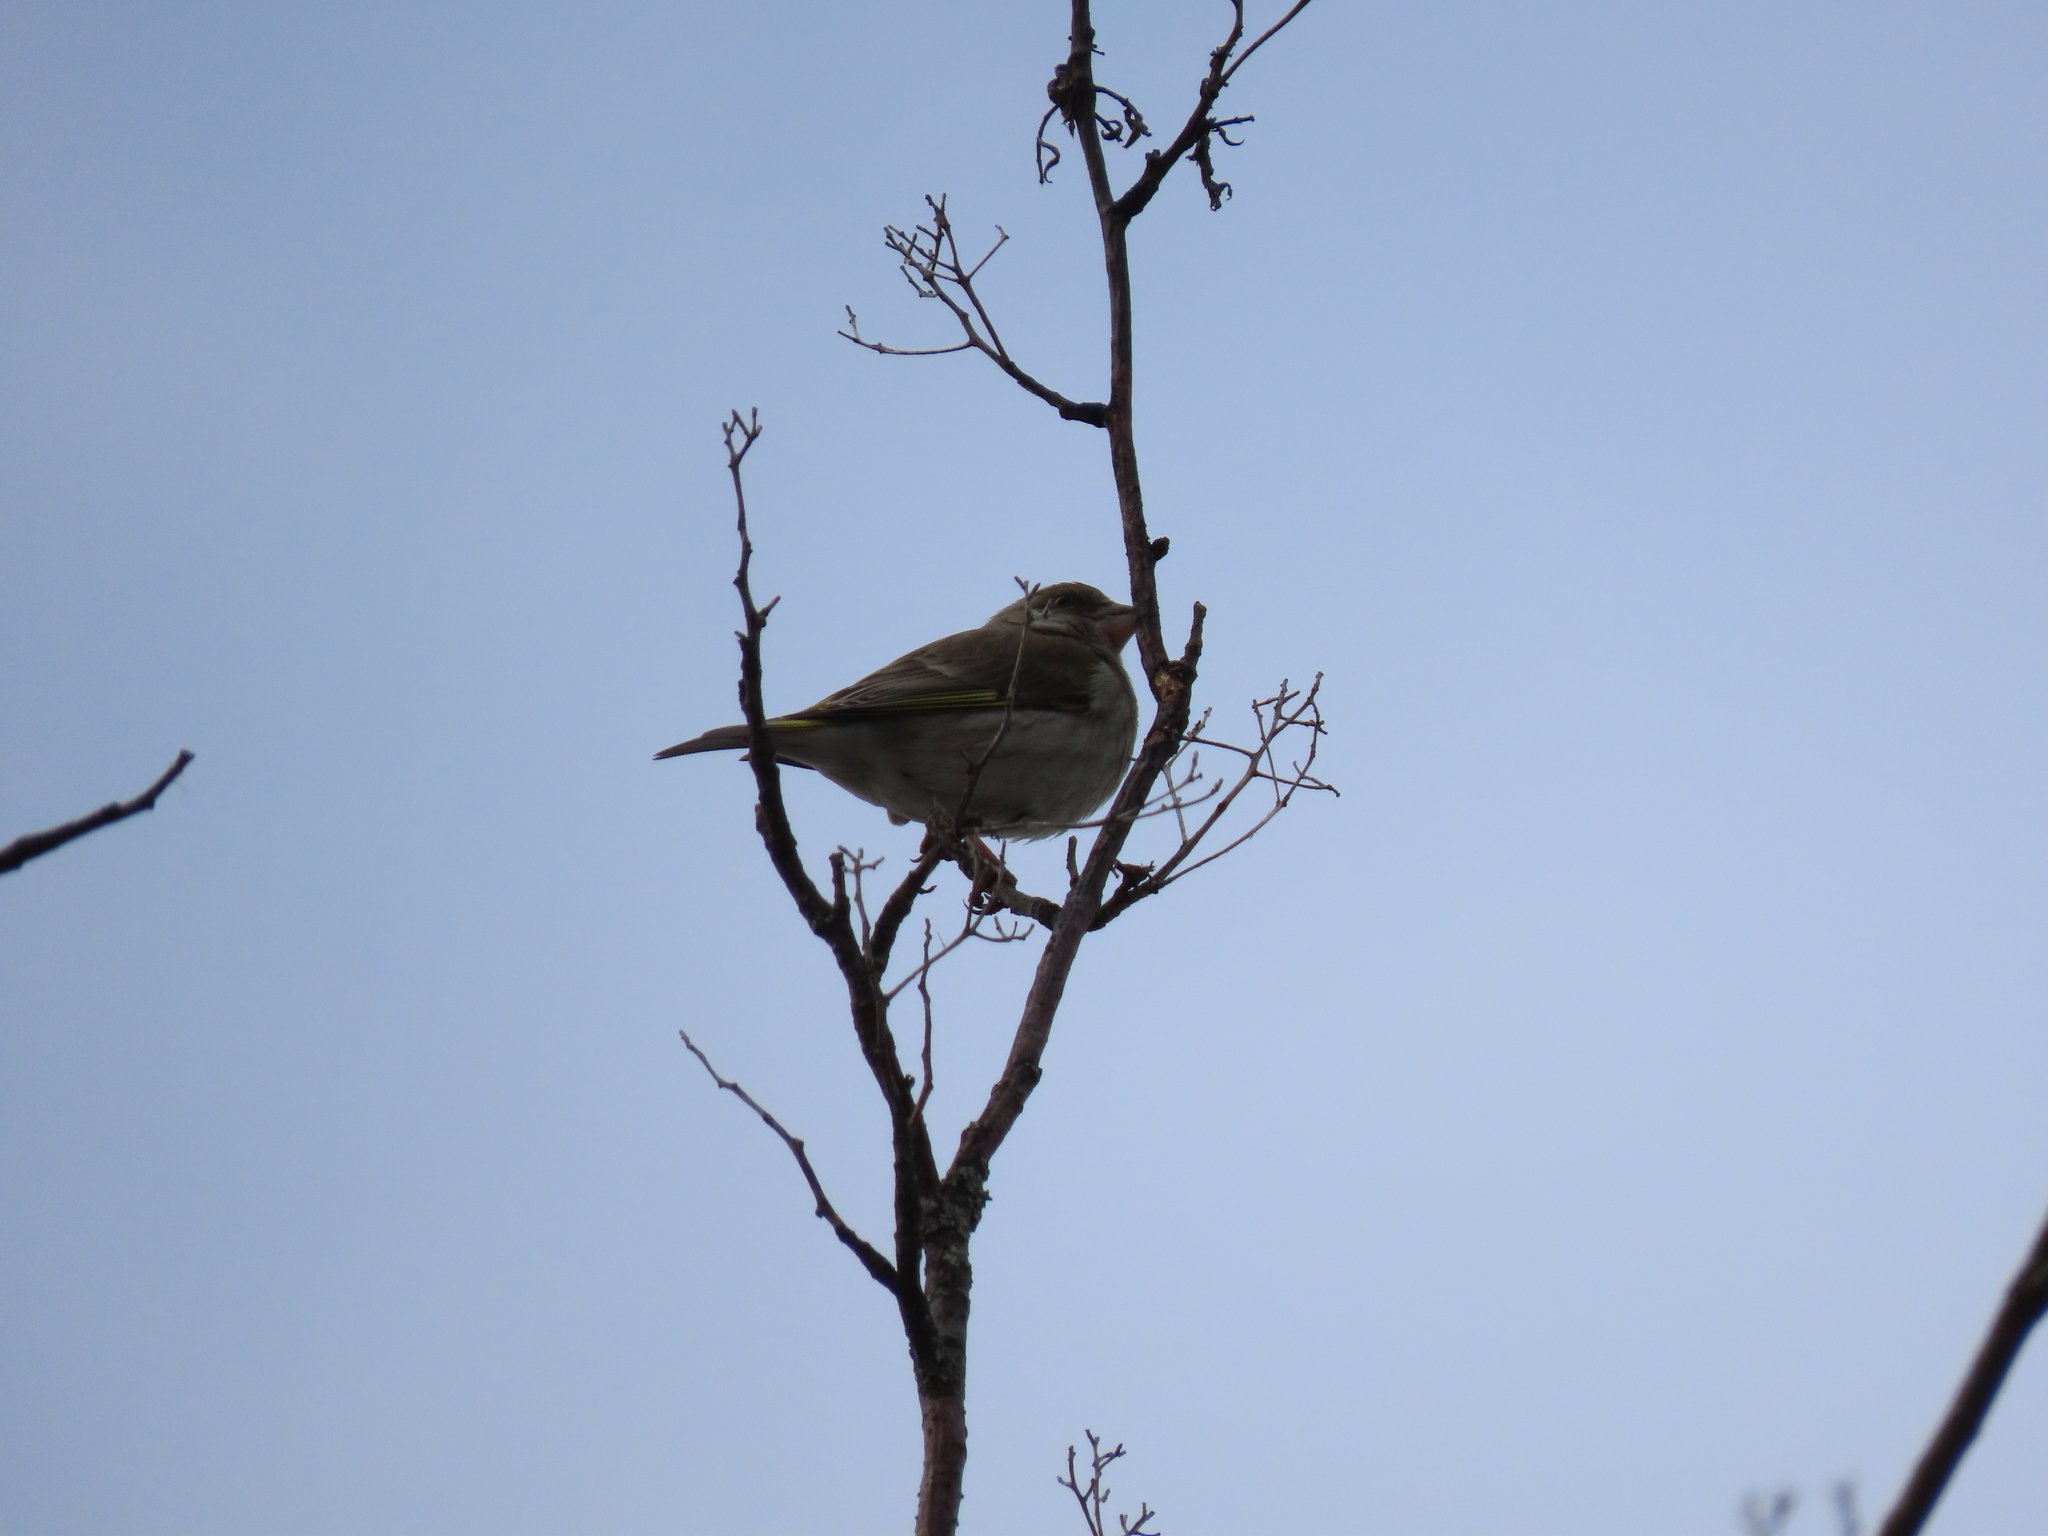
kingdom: Plantae
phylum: Tracheophyta
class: Liliopsida
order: Poales
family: Poaceae
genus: Chloris
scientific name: Chloris chloris
